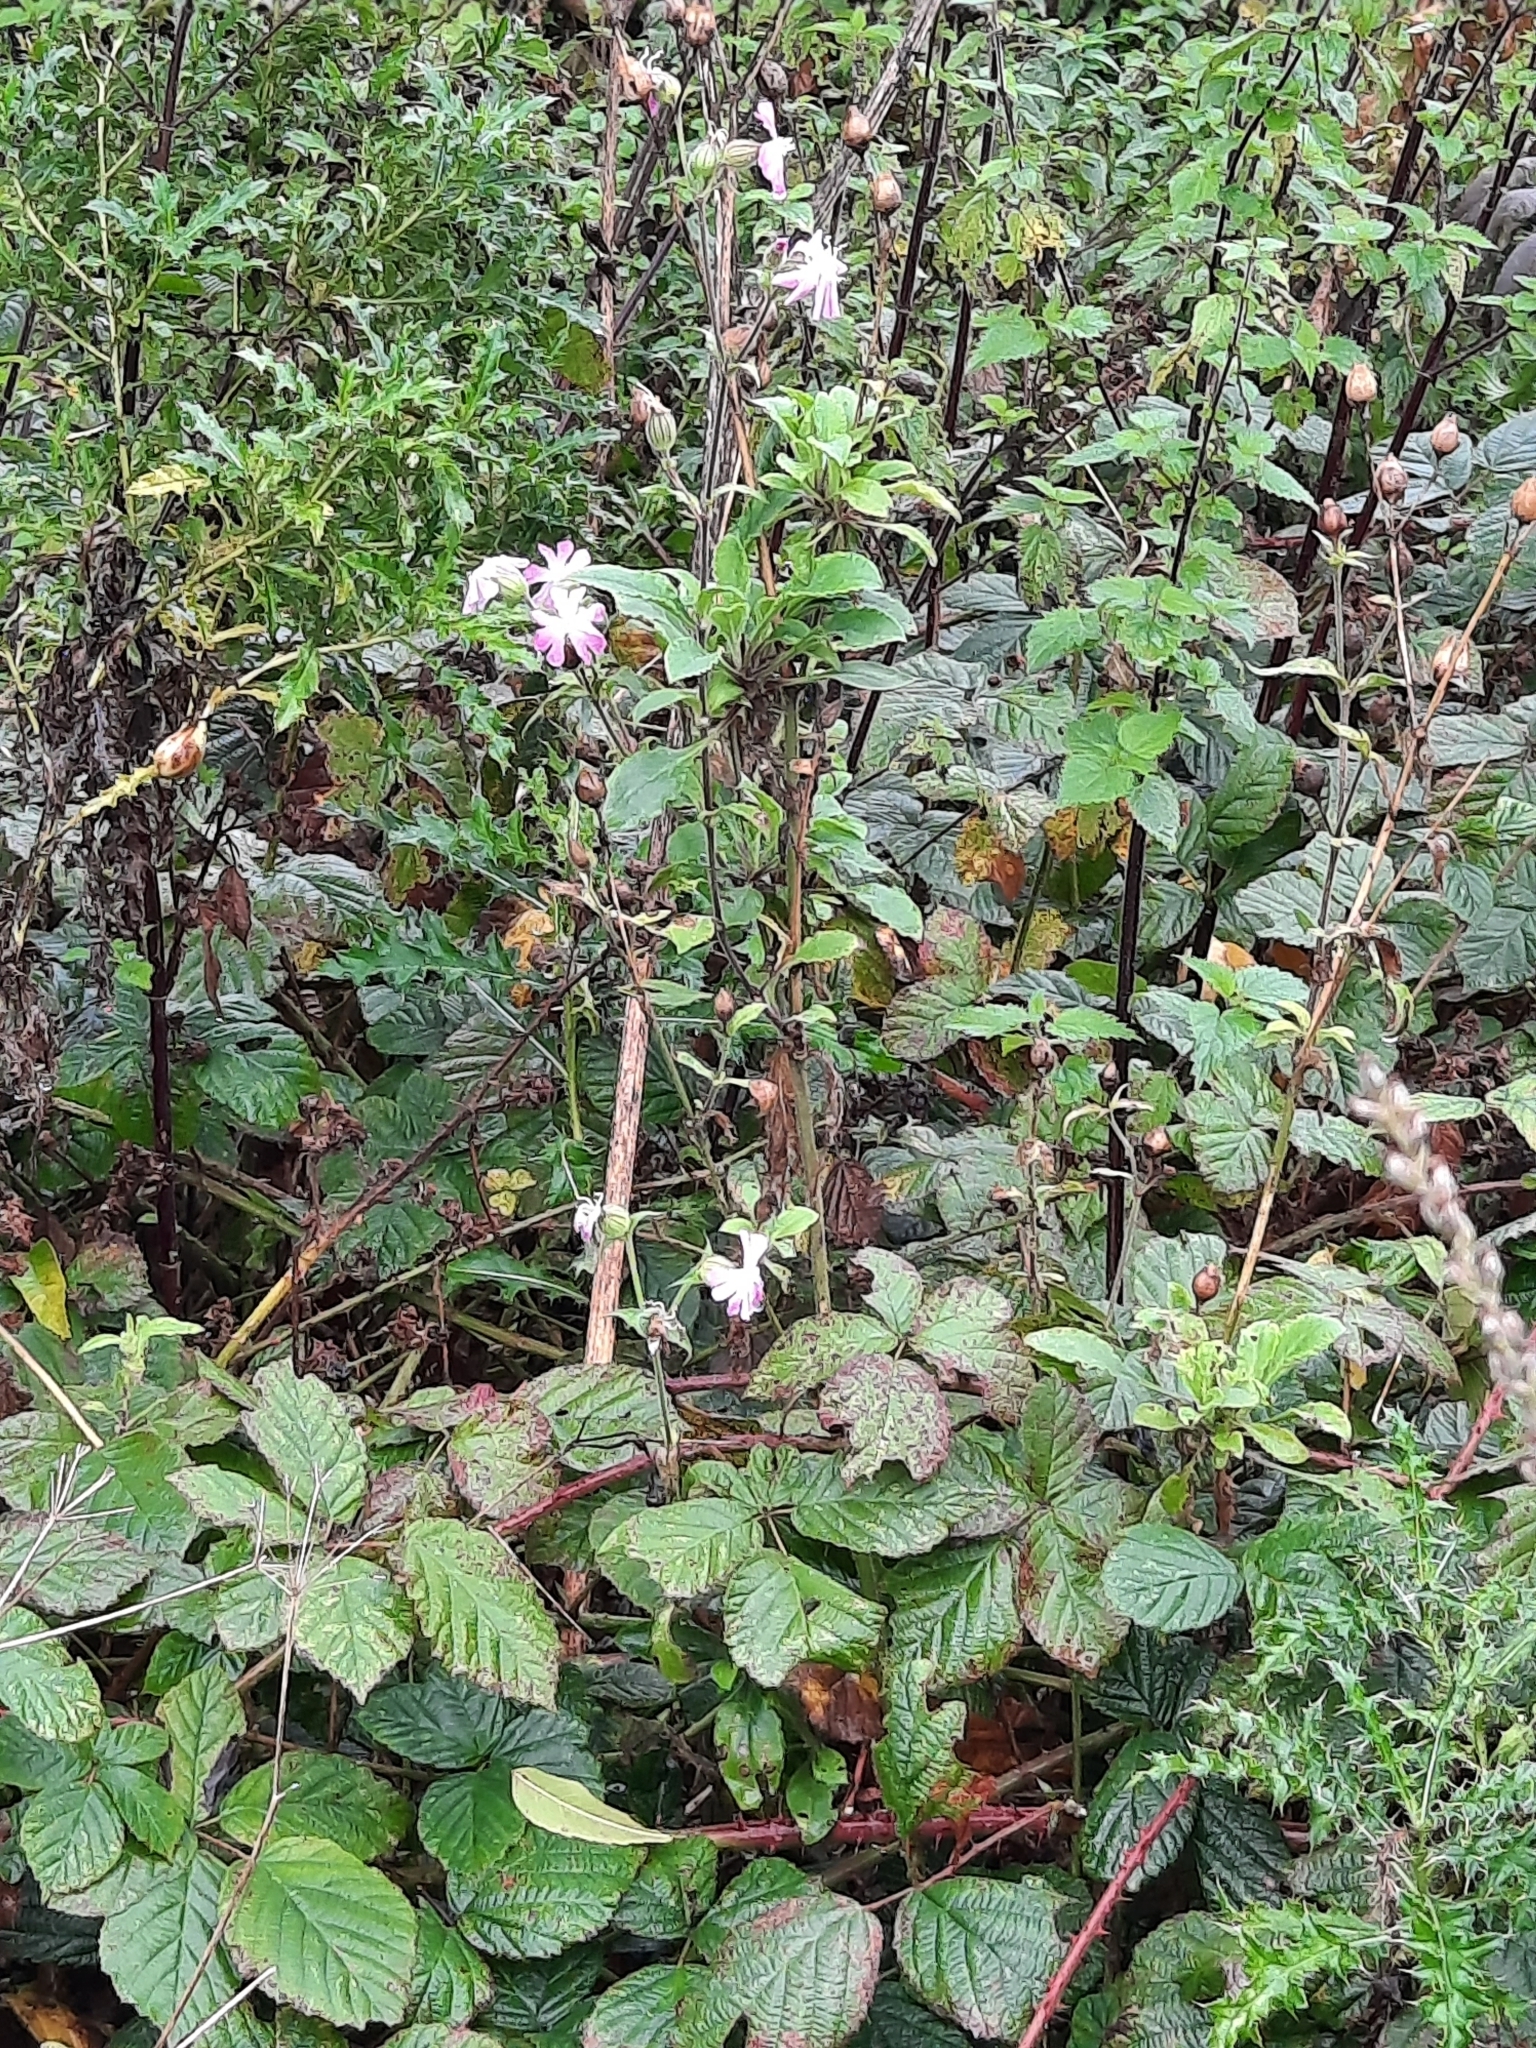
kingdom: Plantae
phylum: Tracheophyta
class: Magnoliopsida
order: Caryophyllales
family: Caryophyllaceae
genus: Silene
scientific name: Silene dioica
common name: Red campion
